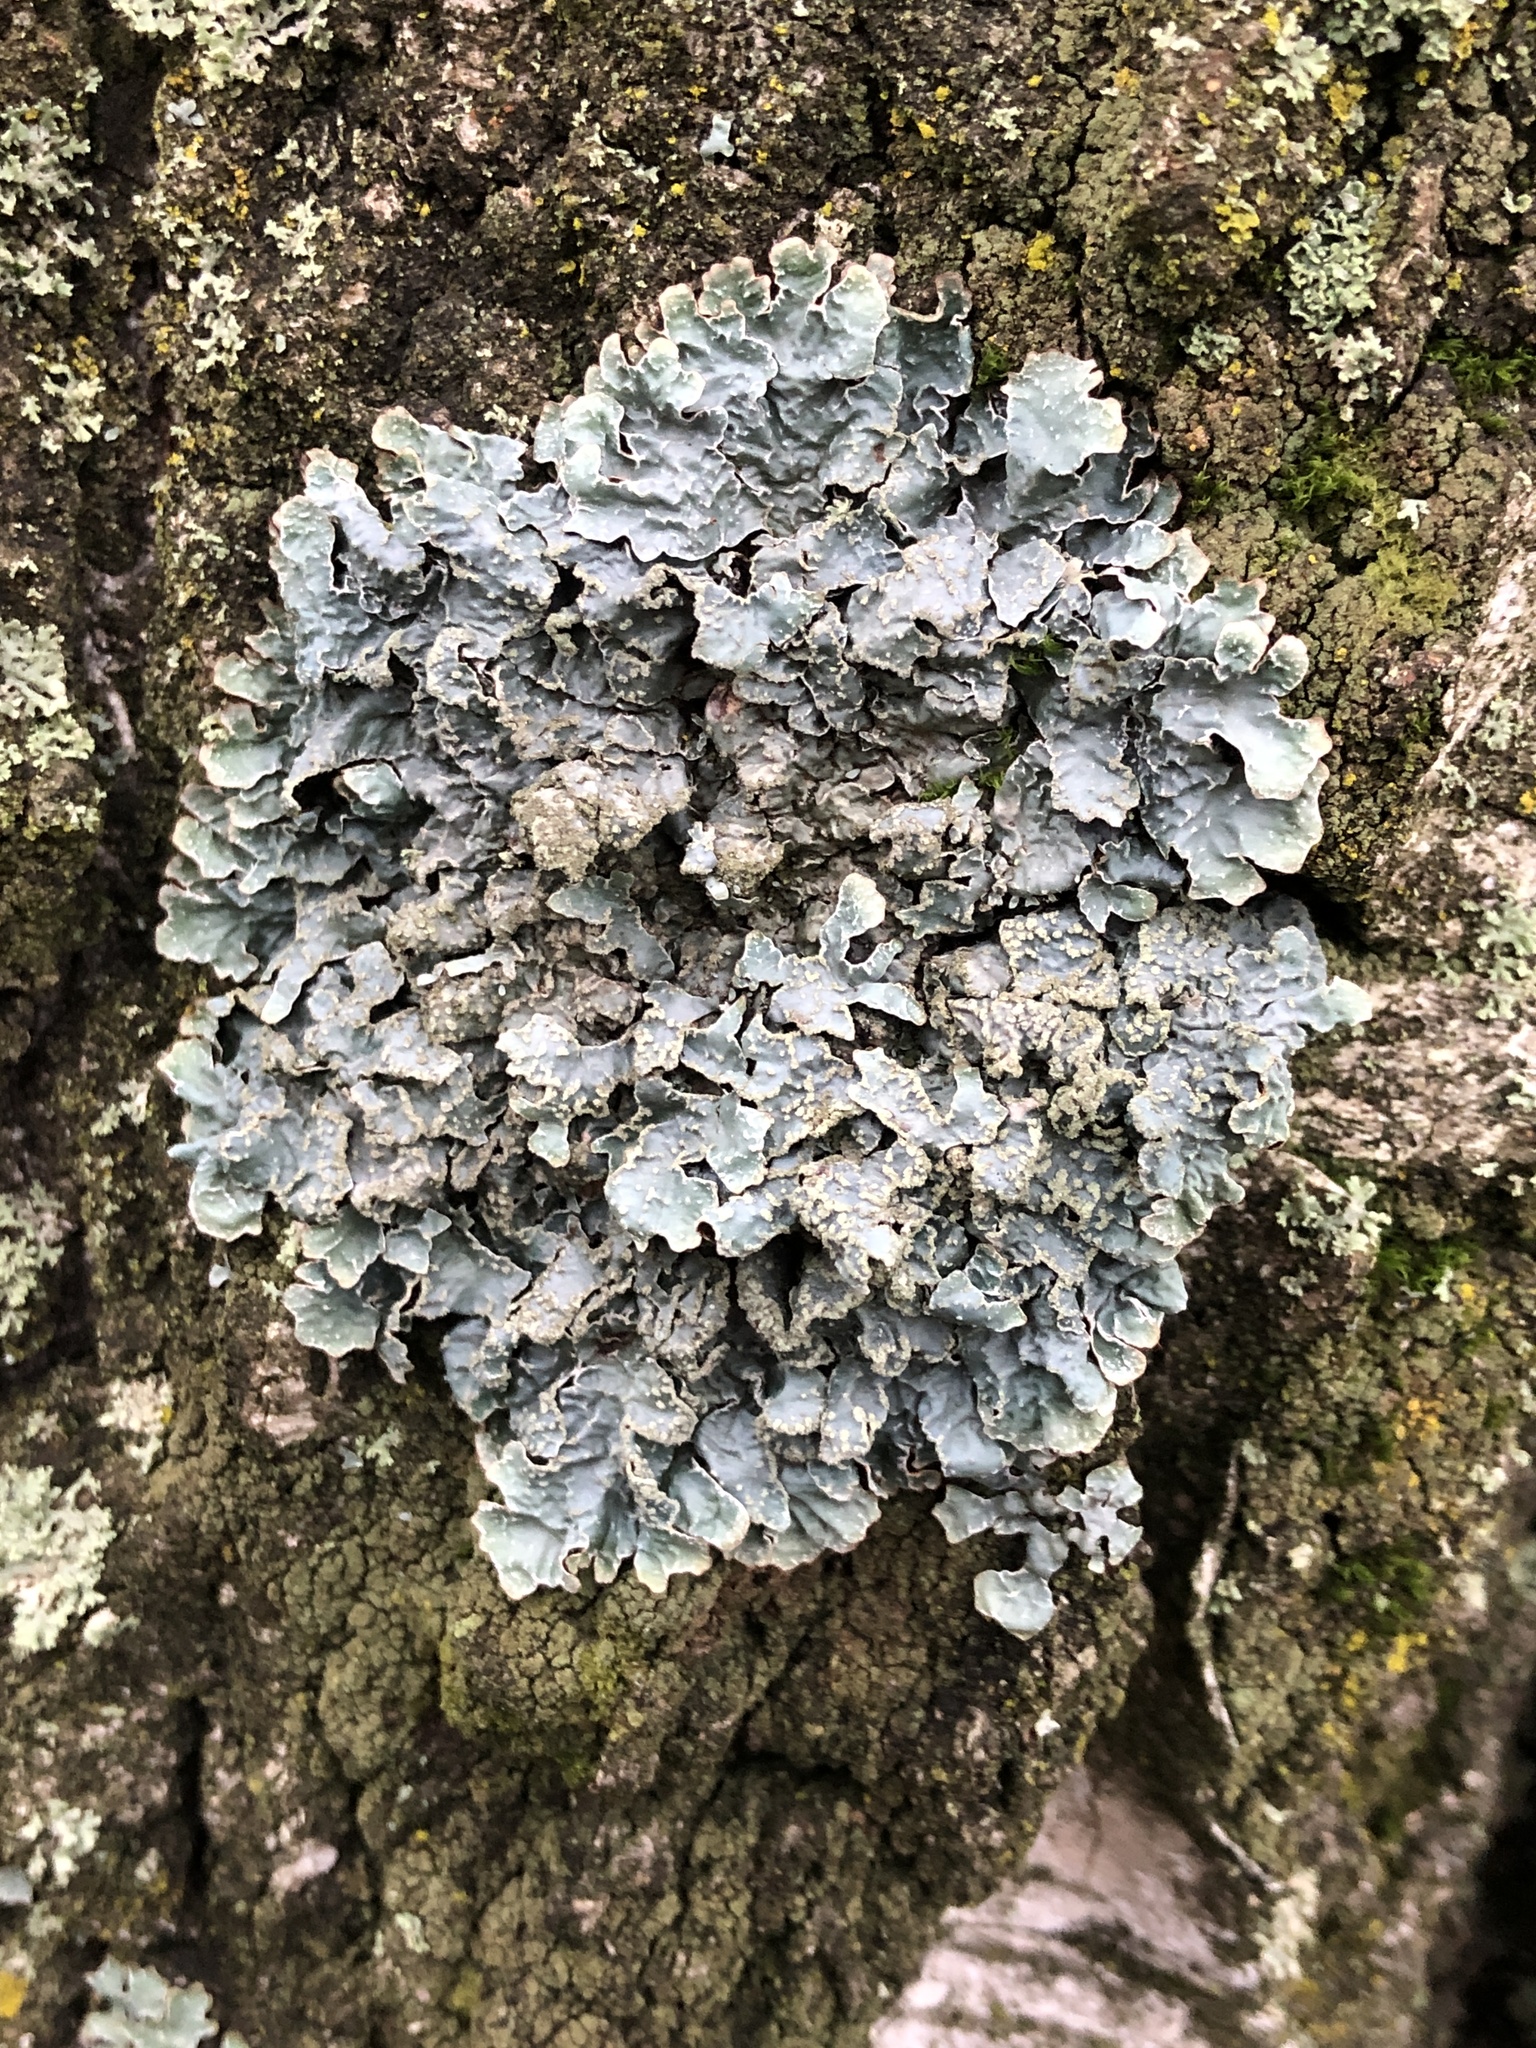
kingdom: Fungi
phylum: Ascomycota
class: Lecanoromycetes
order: Lecanorales
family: Parmeliaceae
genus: Parmelia
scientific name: Parmelia sulcata
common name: Netted shield lichen
